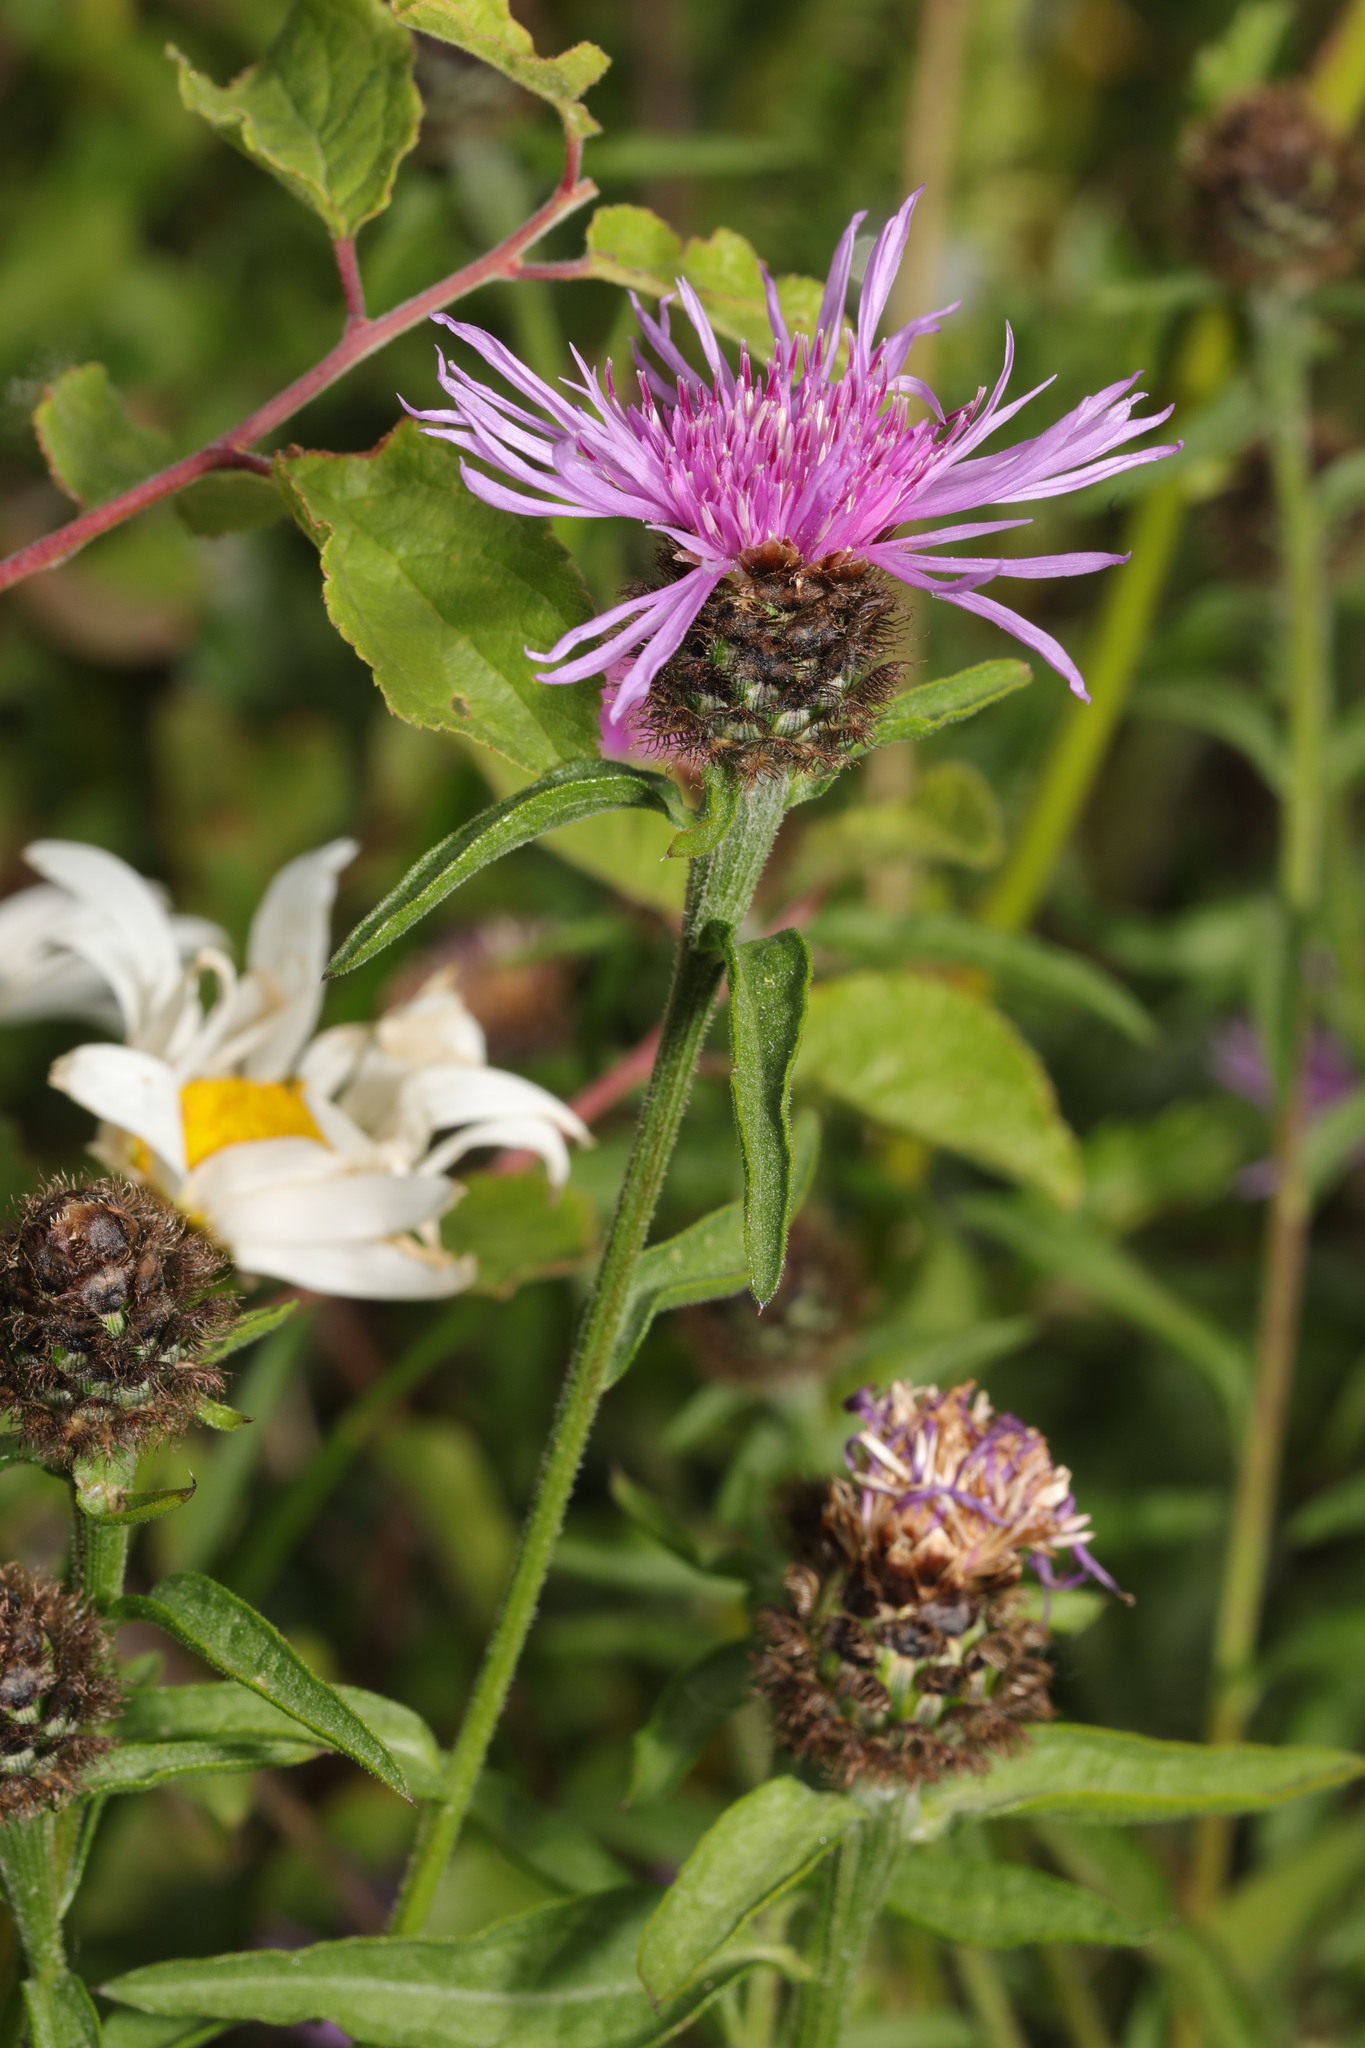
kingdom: Plantae
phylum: Tracheophyta
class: Magnoliopsida
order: Asterales
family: Asteraceae
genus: Centaurea
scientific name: Centaurea nigra
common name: Lesser knapweed
